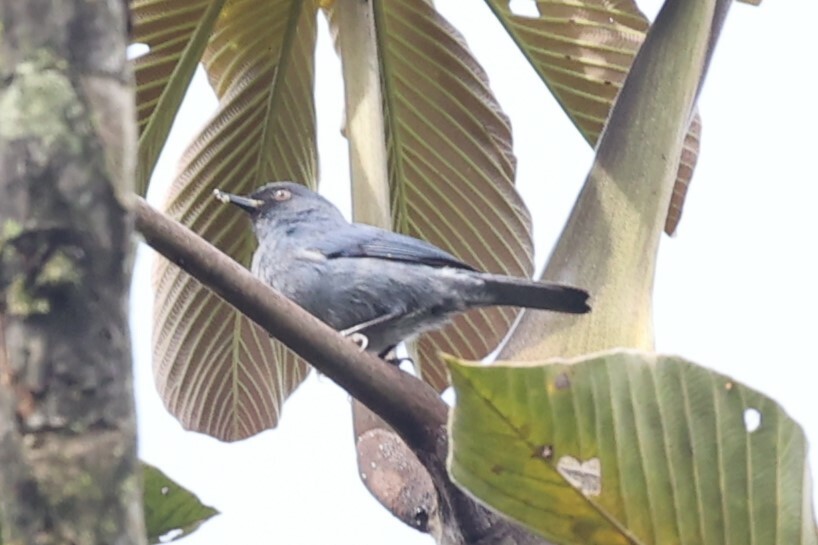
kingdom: Animalia
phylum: Chordata
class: Aves
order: Passeriformes
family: Thraupidae
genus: Diglossa
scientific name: Diglossa caerulescens
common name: Bluish flowerpiercer
